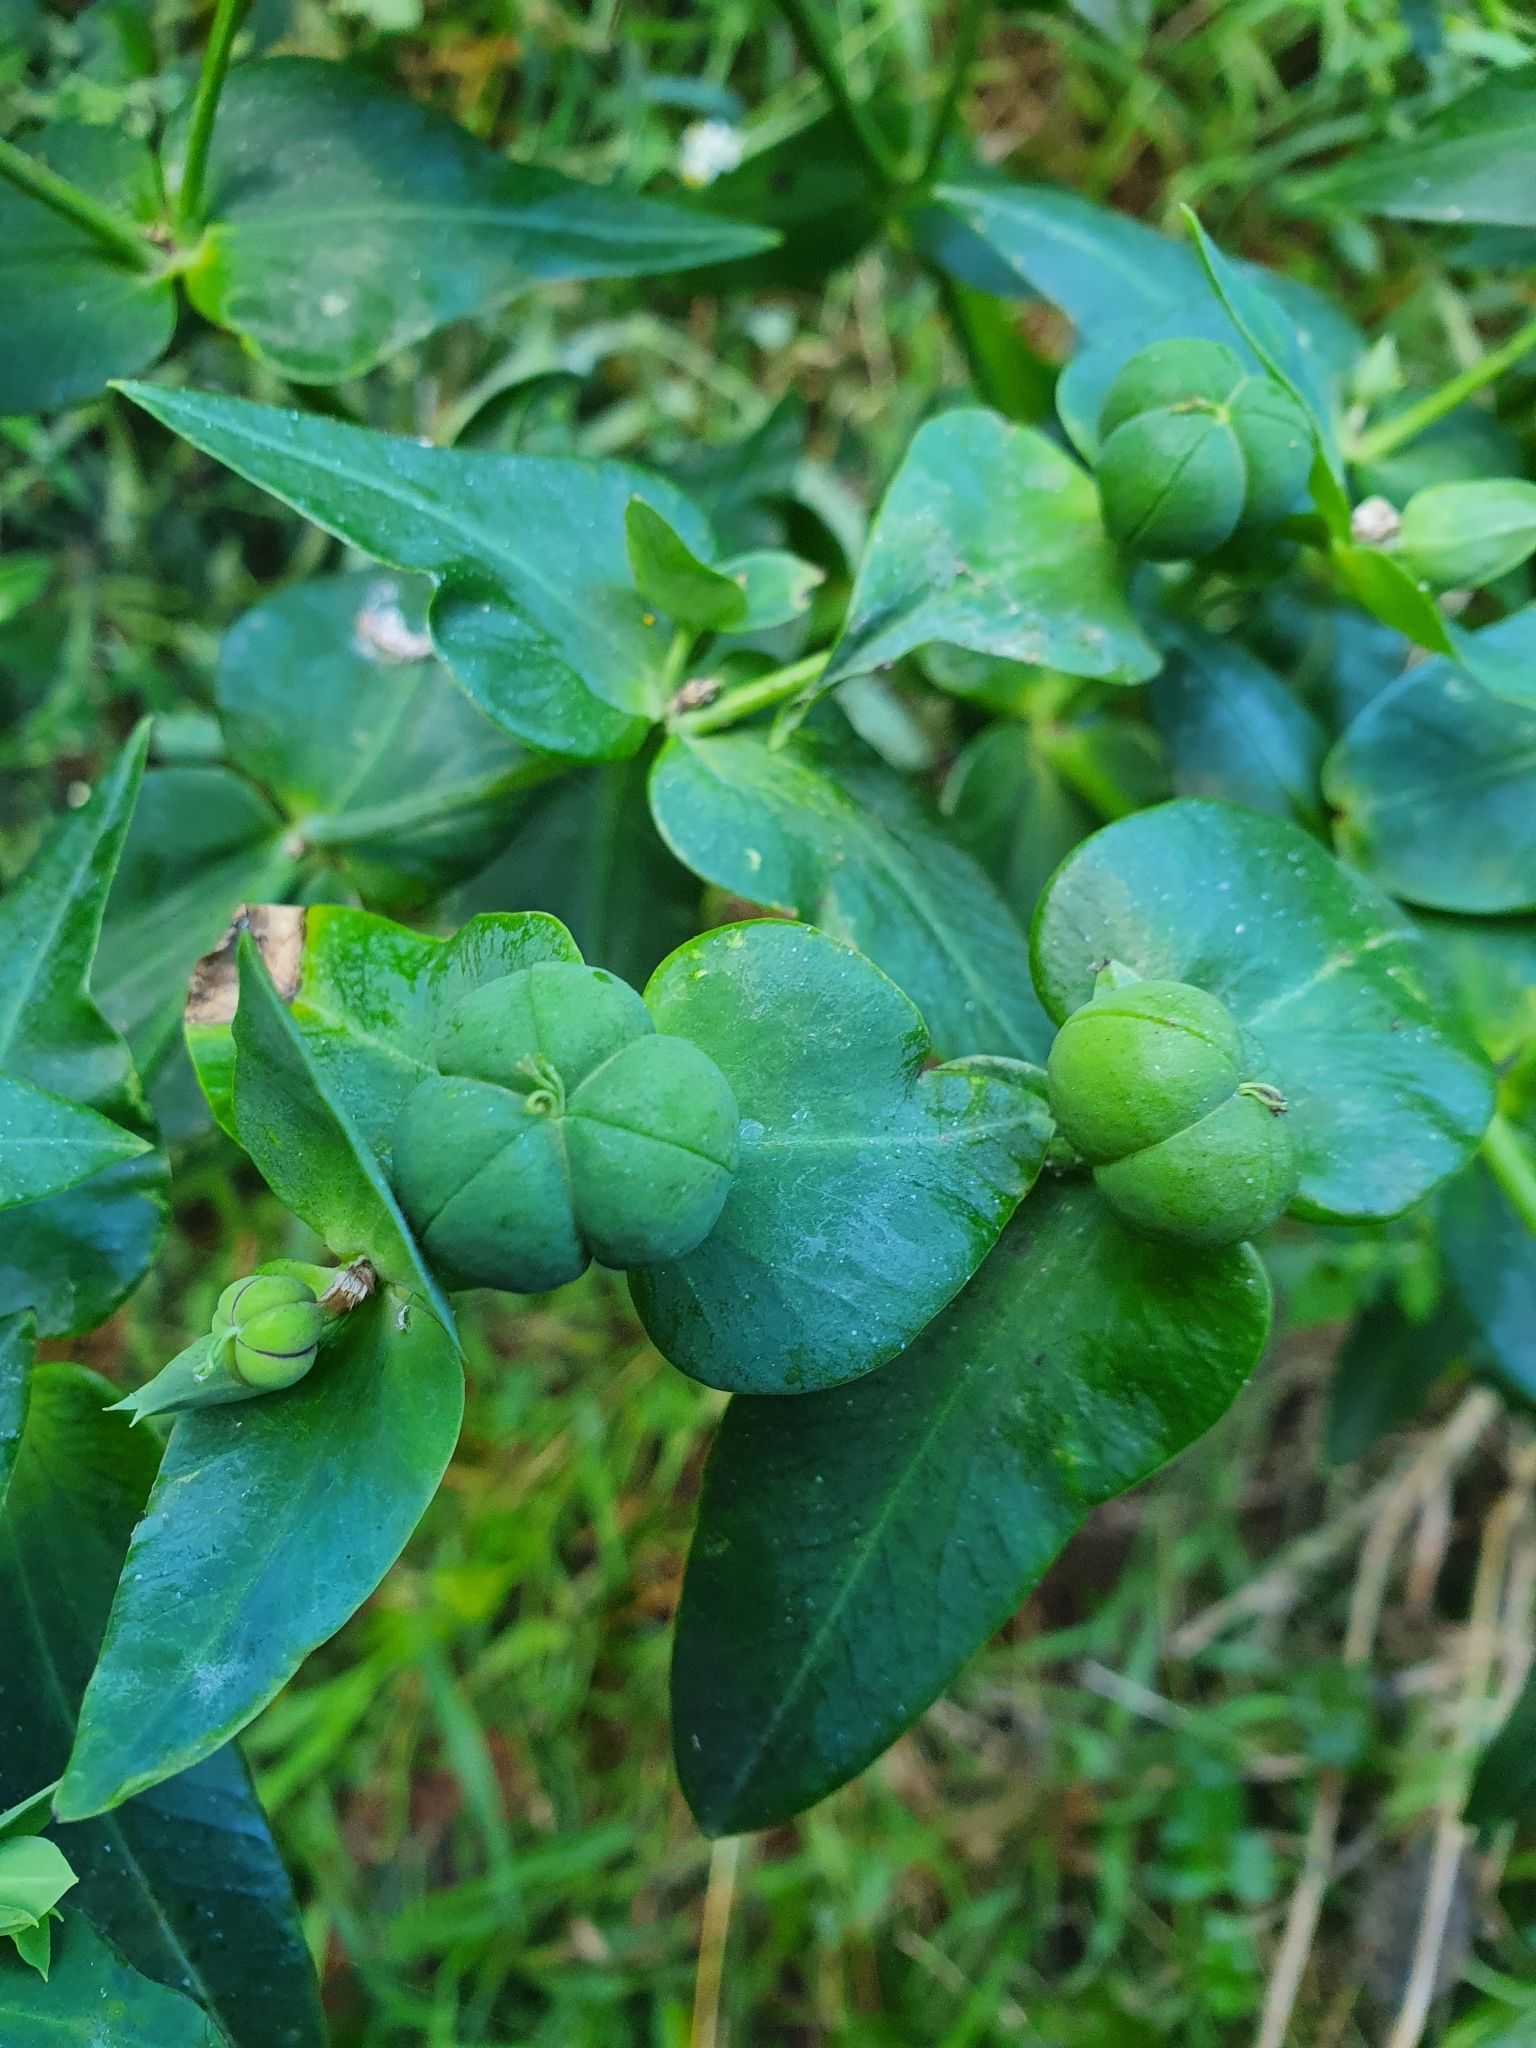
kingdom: Plantae
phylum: Tracheophyta
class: Magnoliopsida
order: Malpighiales
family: Euphorbiaceae
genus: Euphorbia
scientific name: Euphorbia lathyris
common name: Caper spurge
